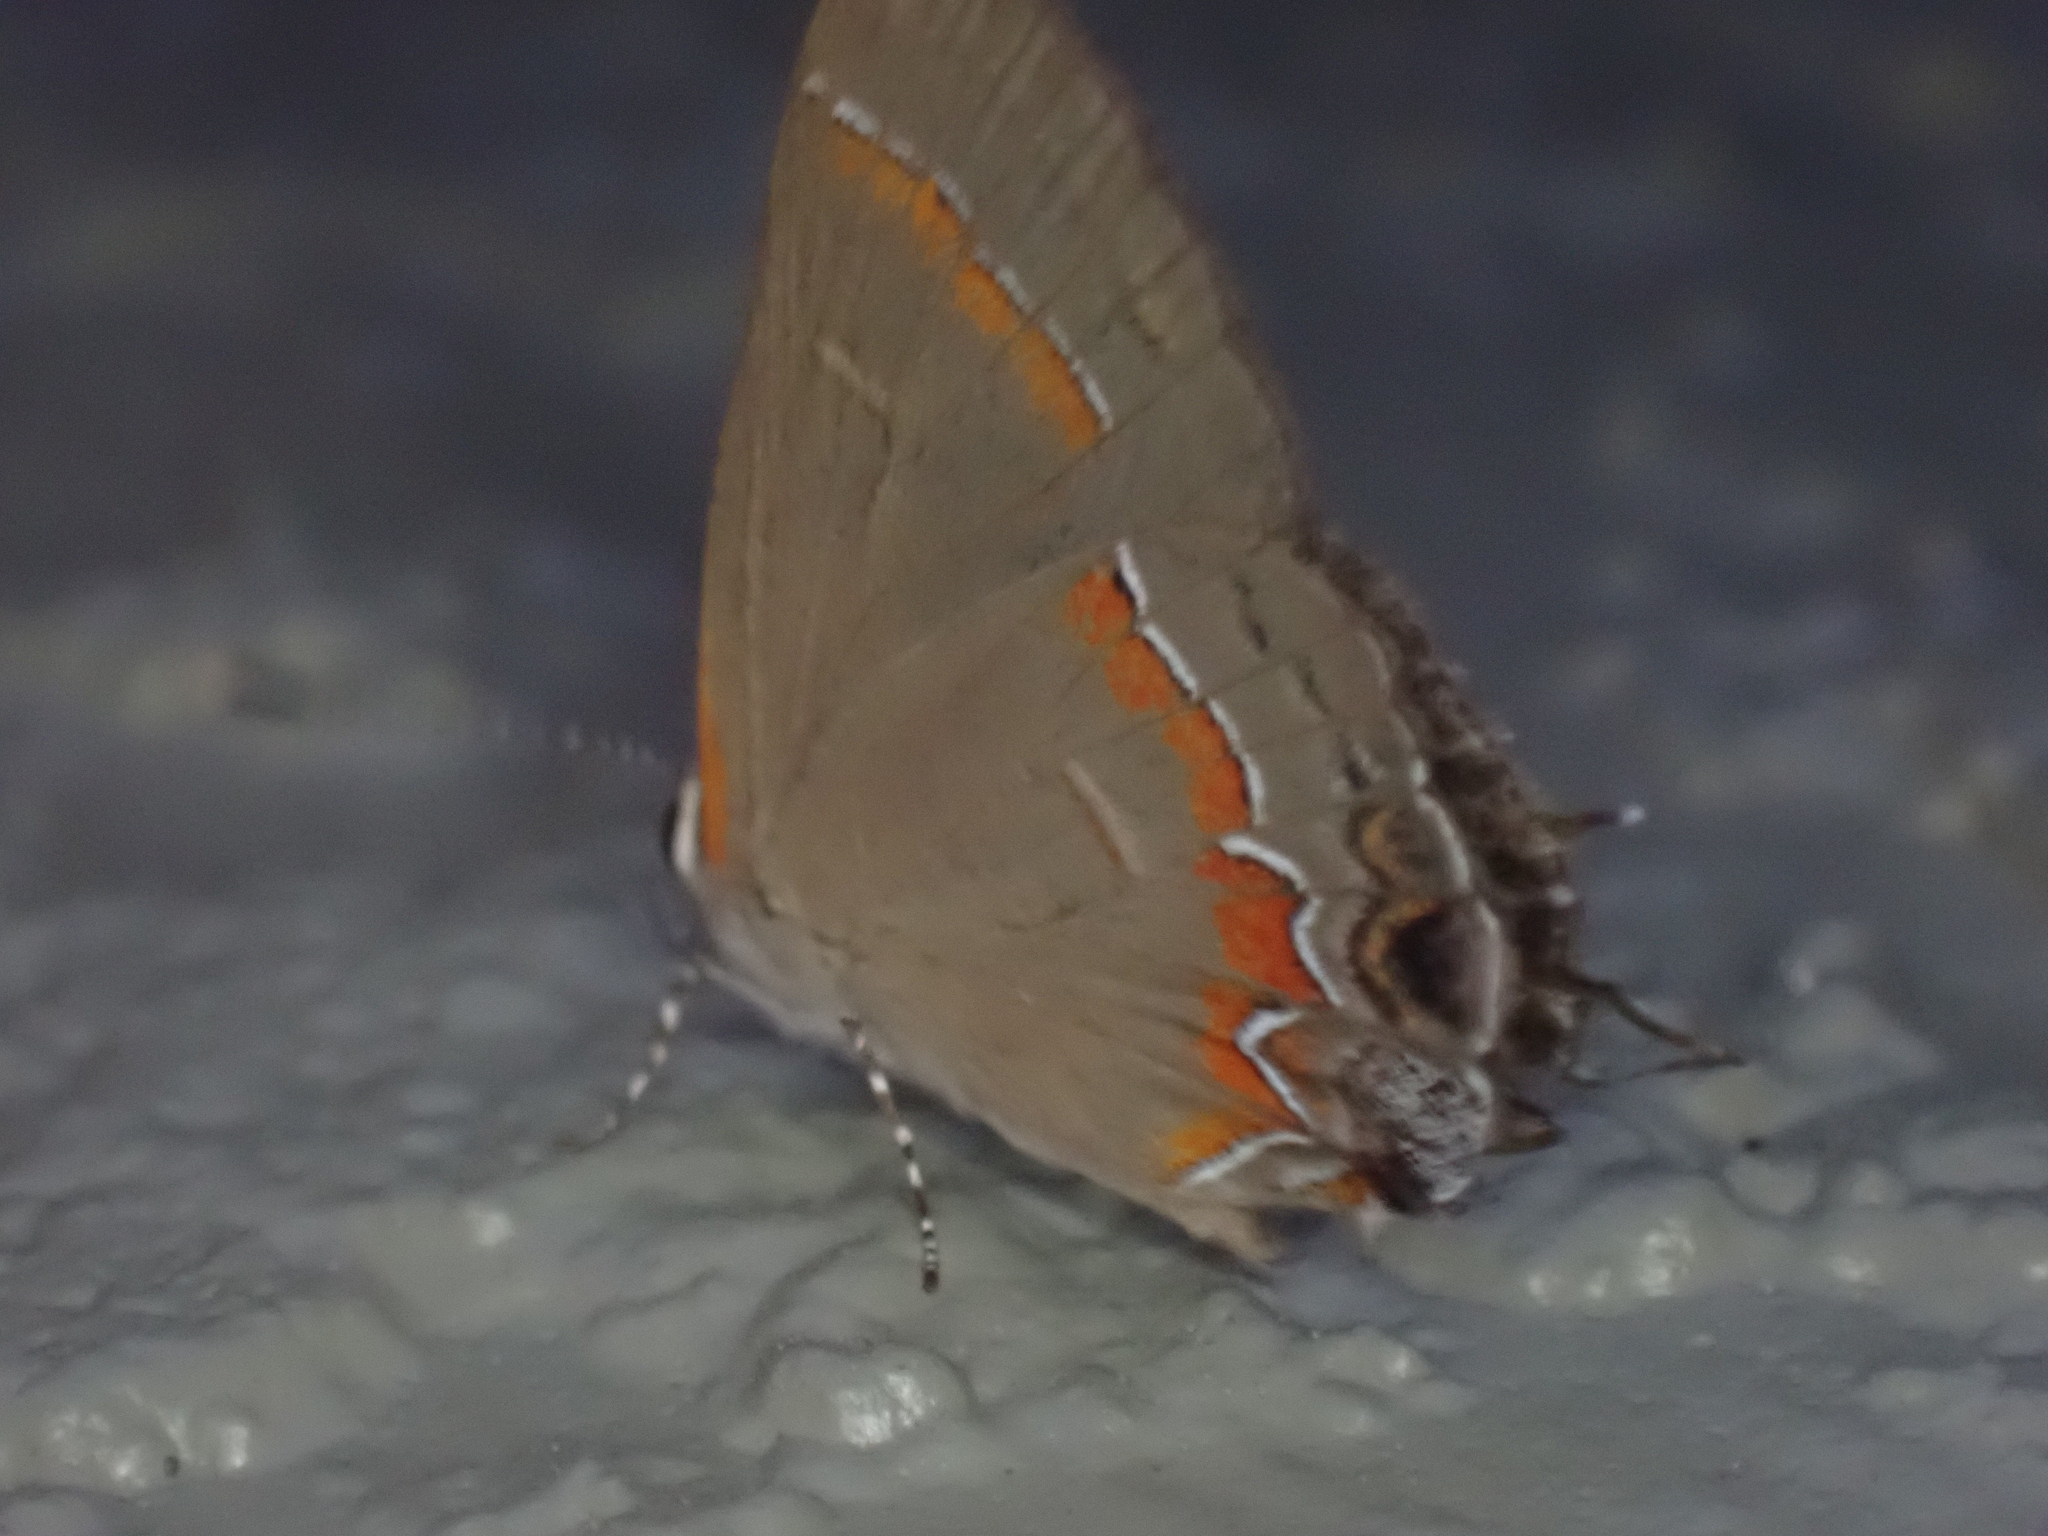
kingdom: Animalia
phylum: Arthropoda
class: Insecta
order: Lepidoptera
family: Lycaenidae
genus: Calycopis
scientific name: Calycopis cecrops
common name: Red-banded hairstreak
